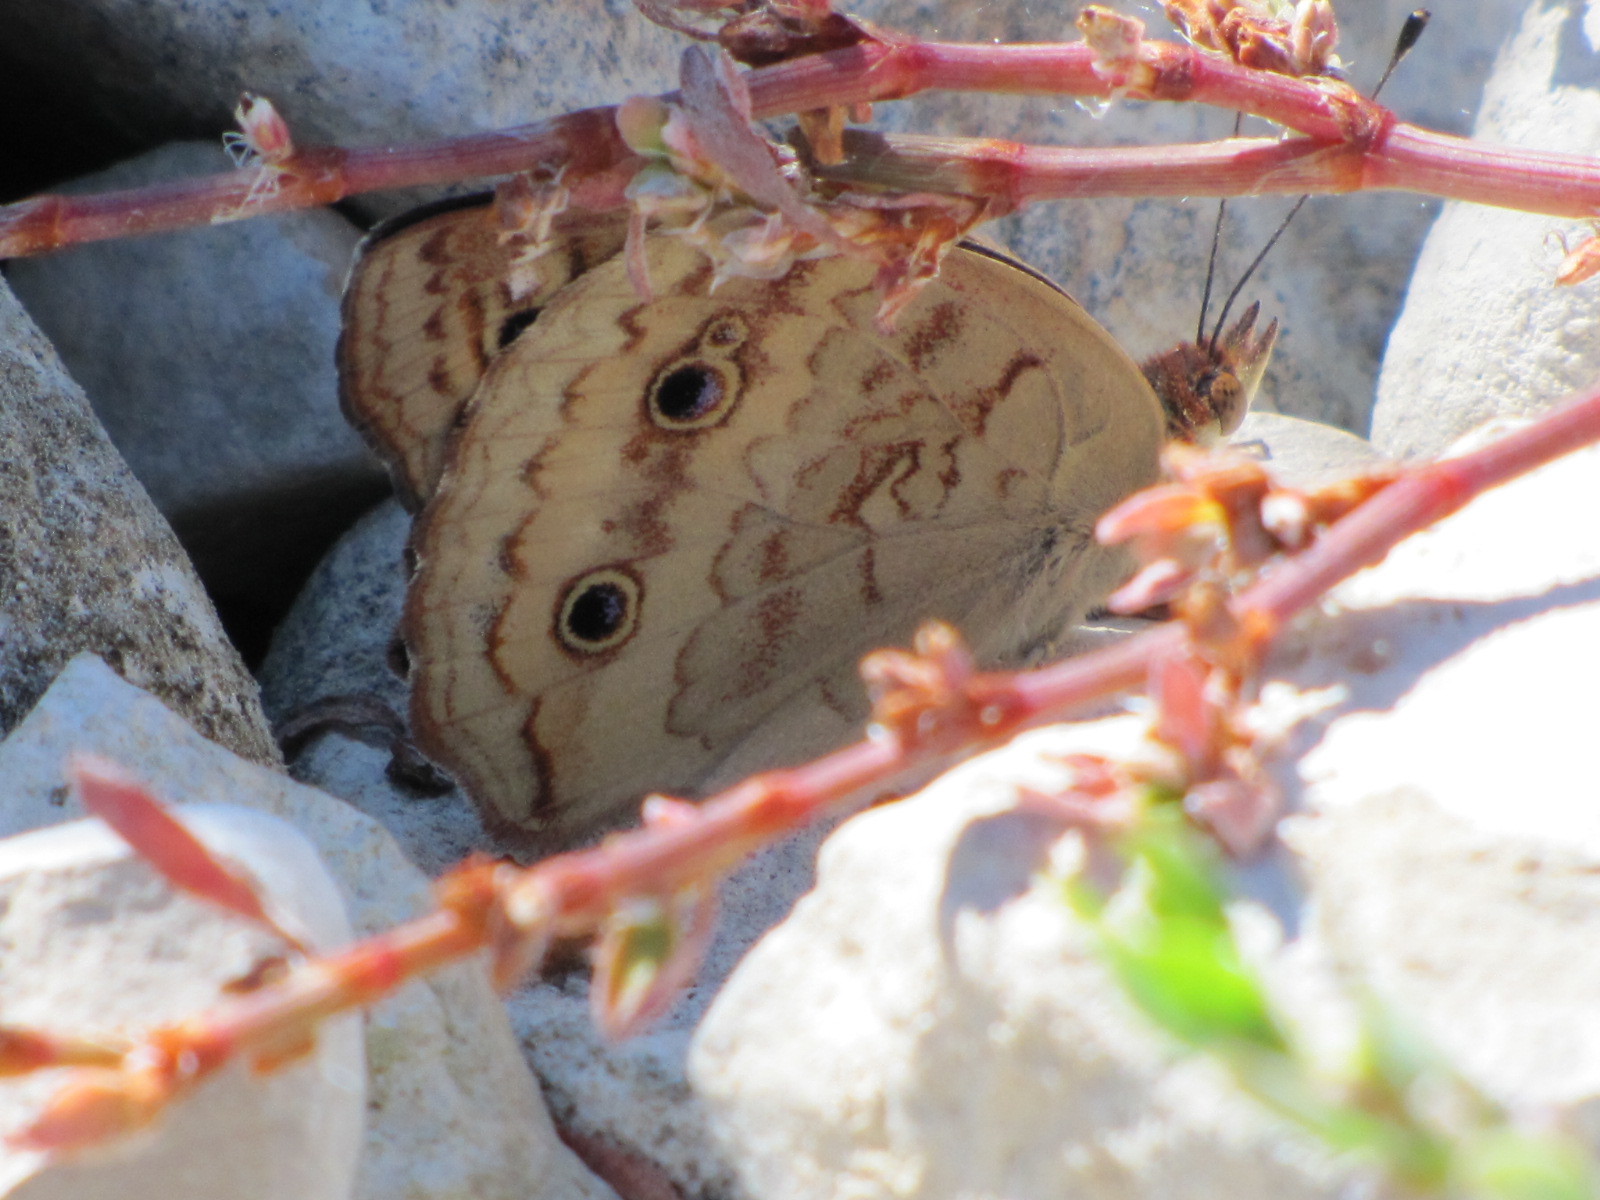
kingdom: Animalia
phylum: Arthropoda
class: Insecta
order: Lepidoptera
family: Nymphalidae
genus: Junonia
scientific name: Junonia coenia
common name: Common buckeye
